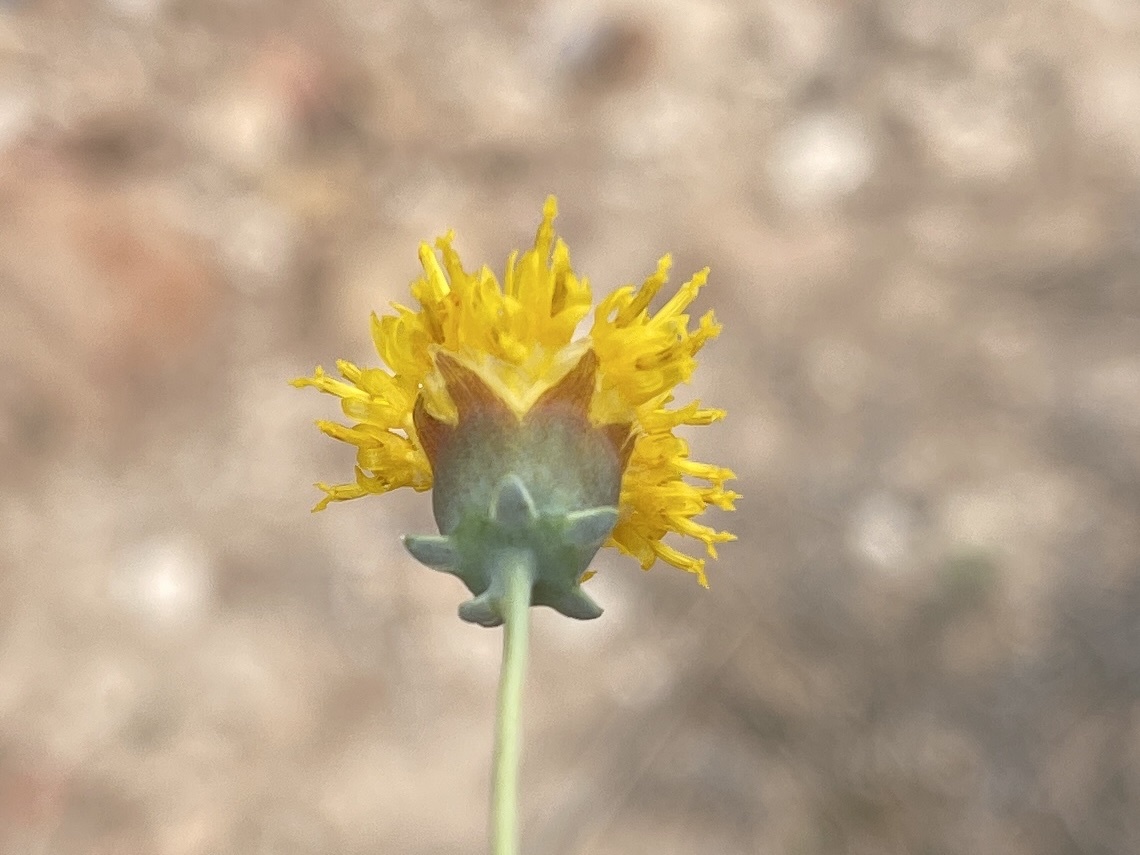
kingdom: Plantae
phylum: Tracheophyta
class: Magnoliopsida
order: Asterales
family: Asteraceae
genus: Thelesperma
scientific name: Thelesperma megapotamicum
